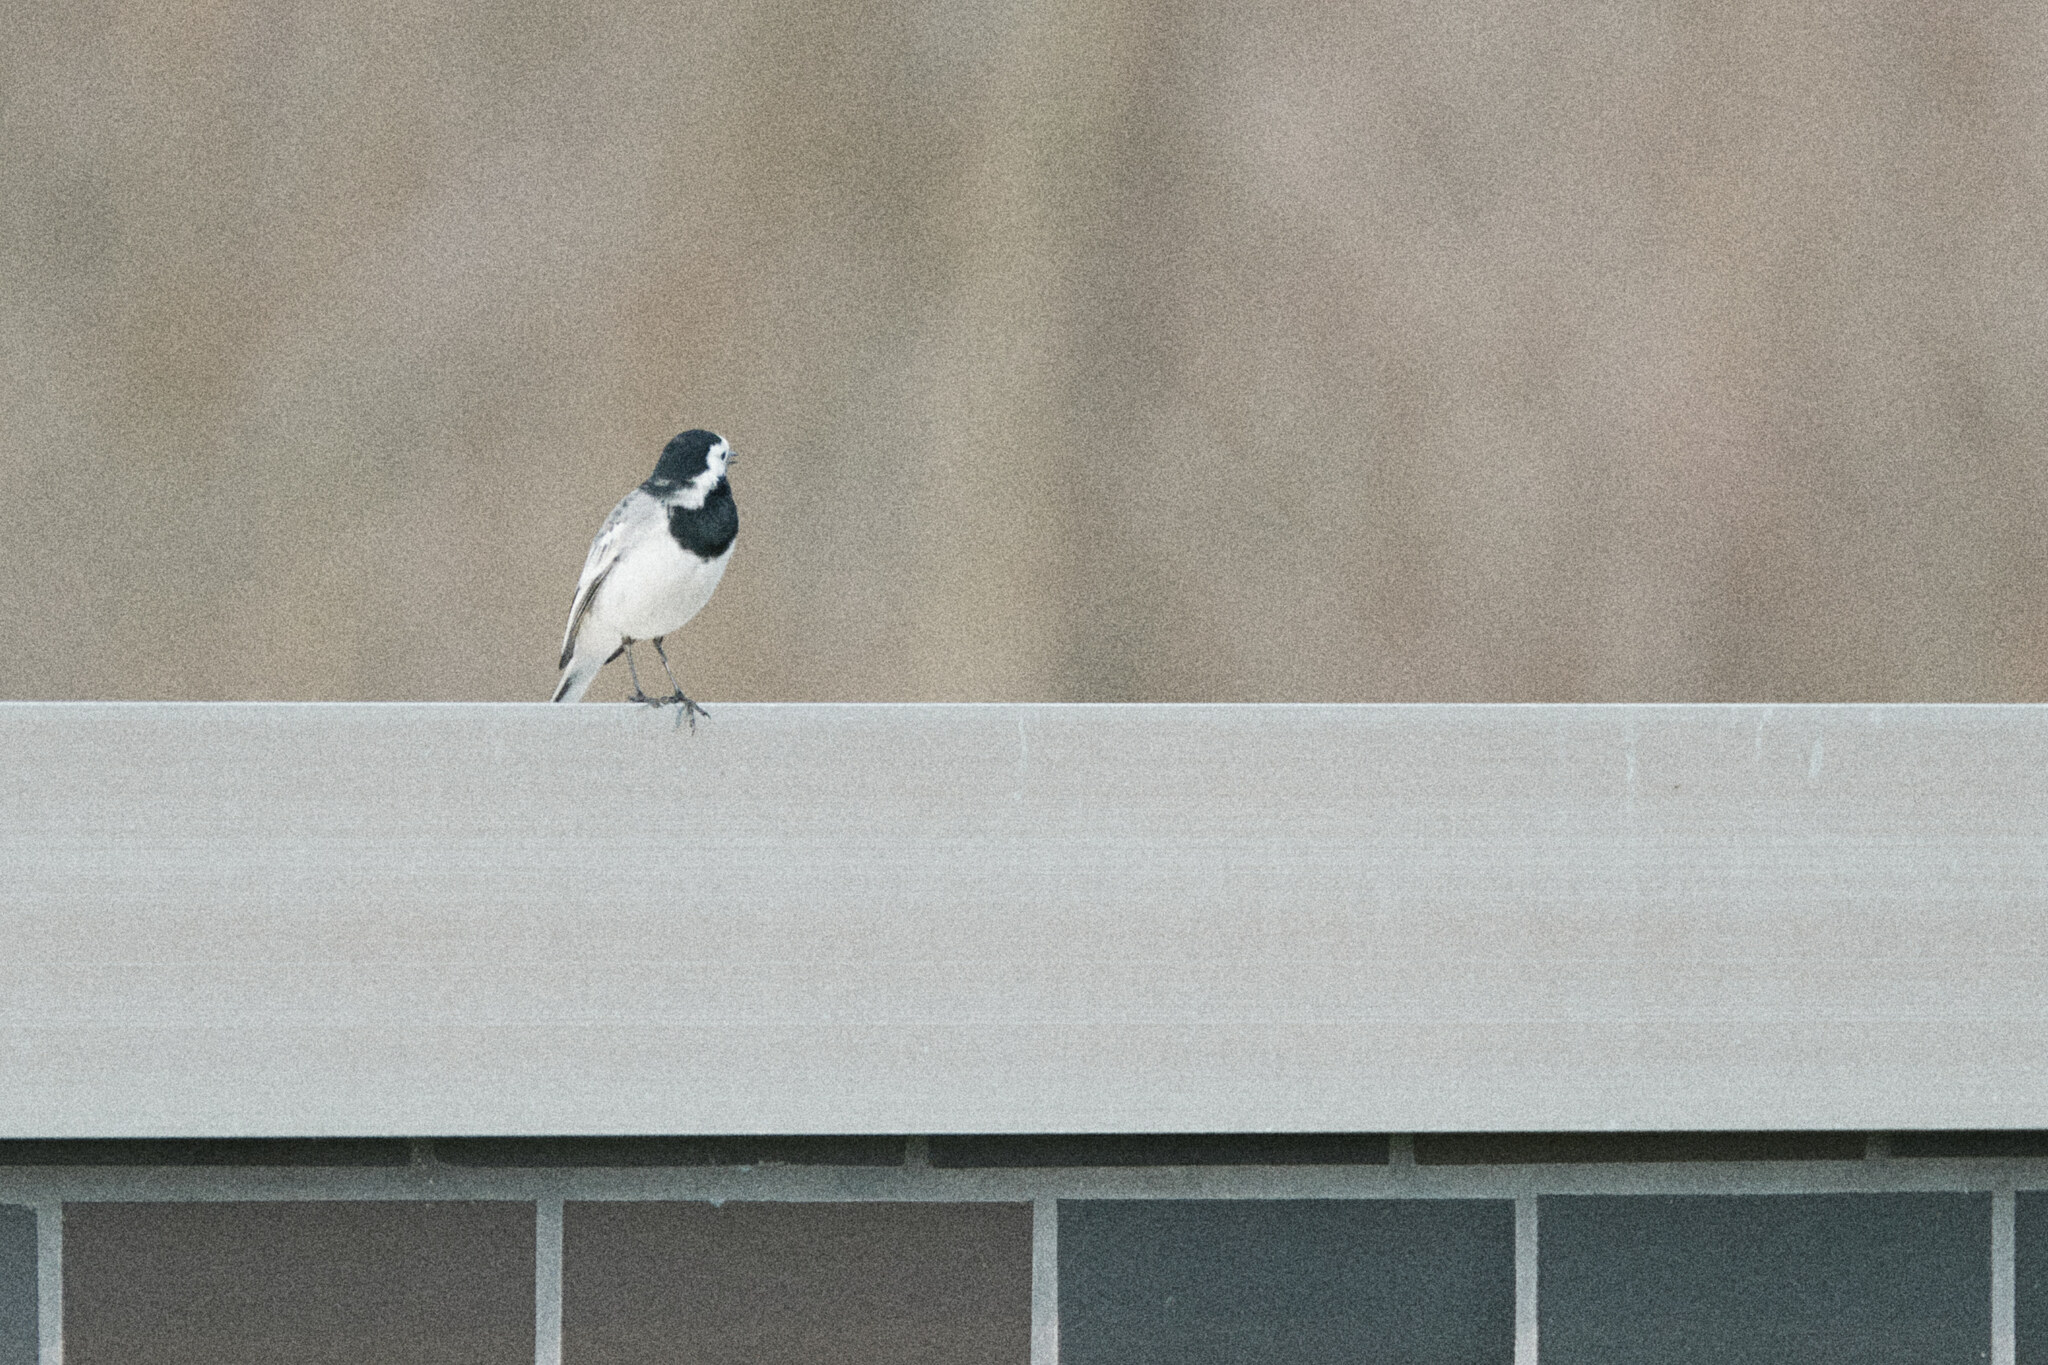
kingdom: Animalia
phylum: Chordata
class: Aves
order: Passeriformes
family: Motacillidae
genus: Motacilla
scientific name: Motacilla alba
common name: White wagtail
